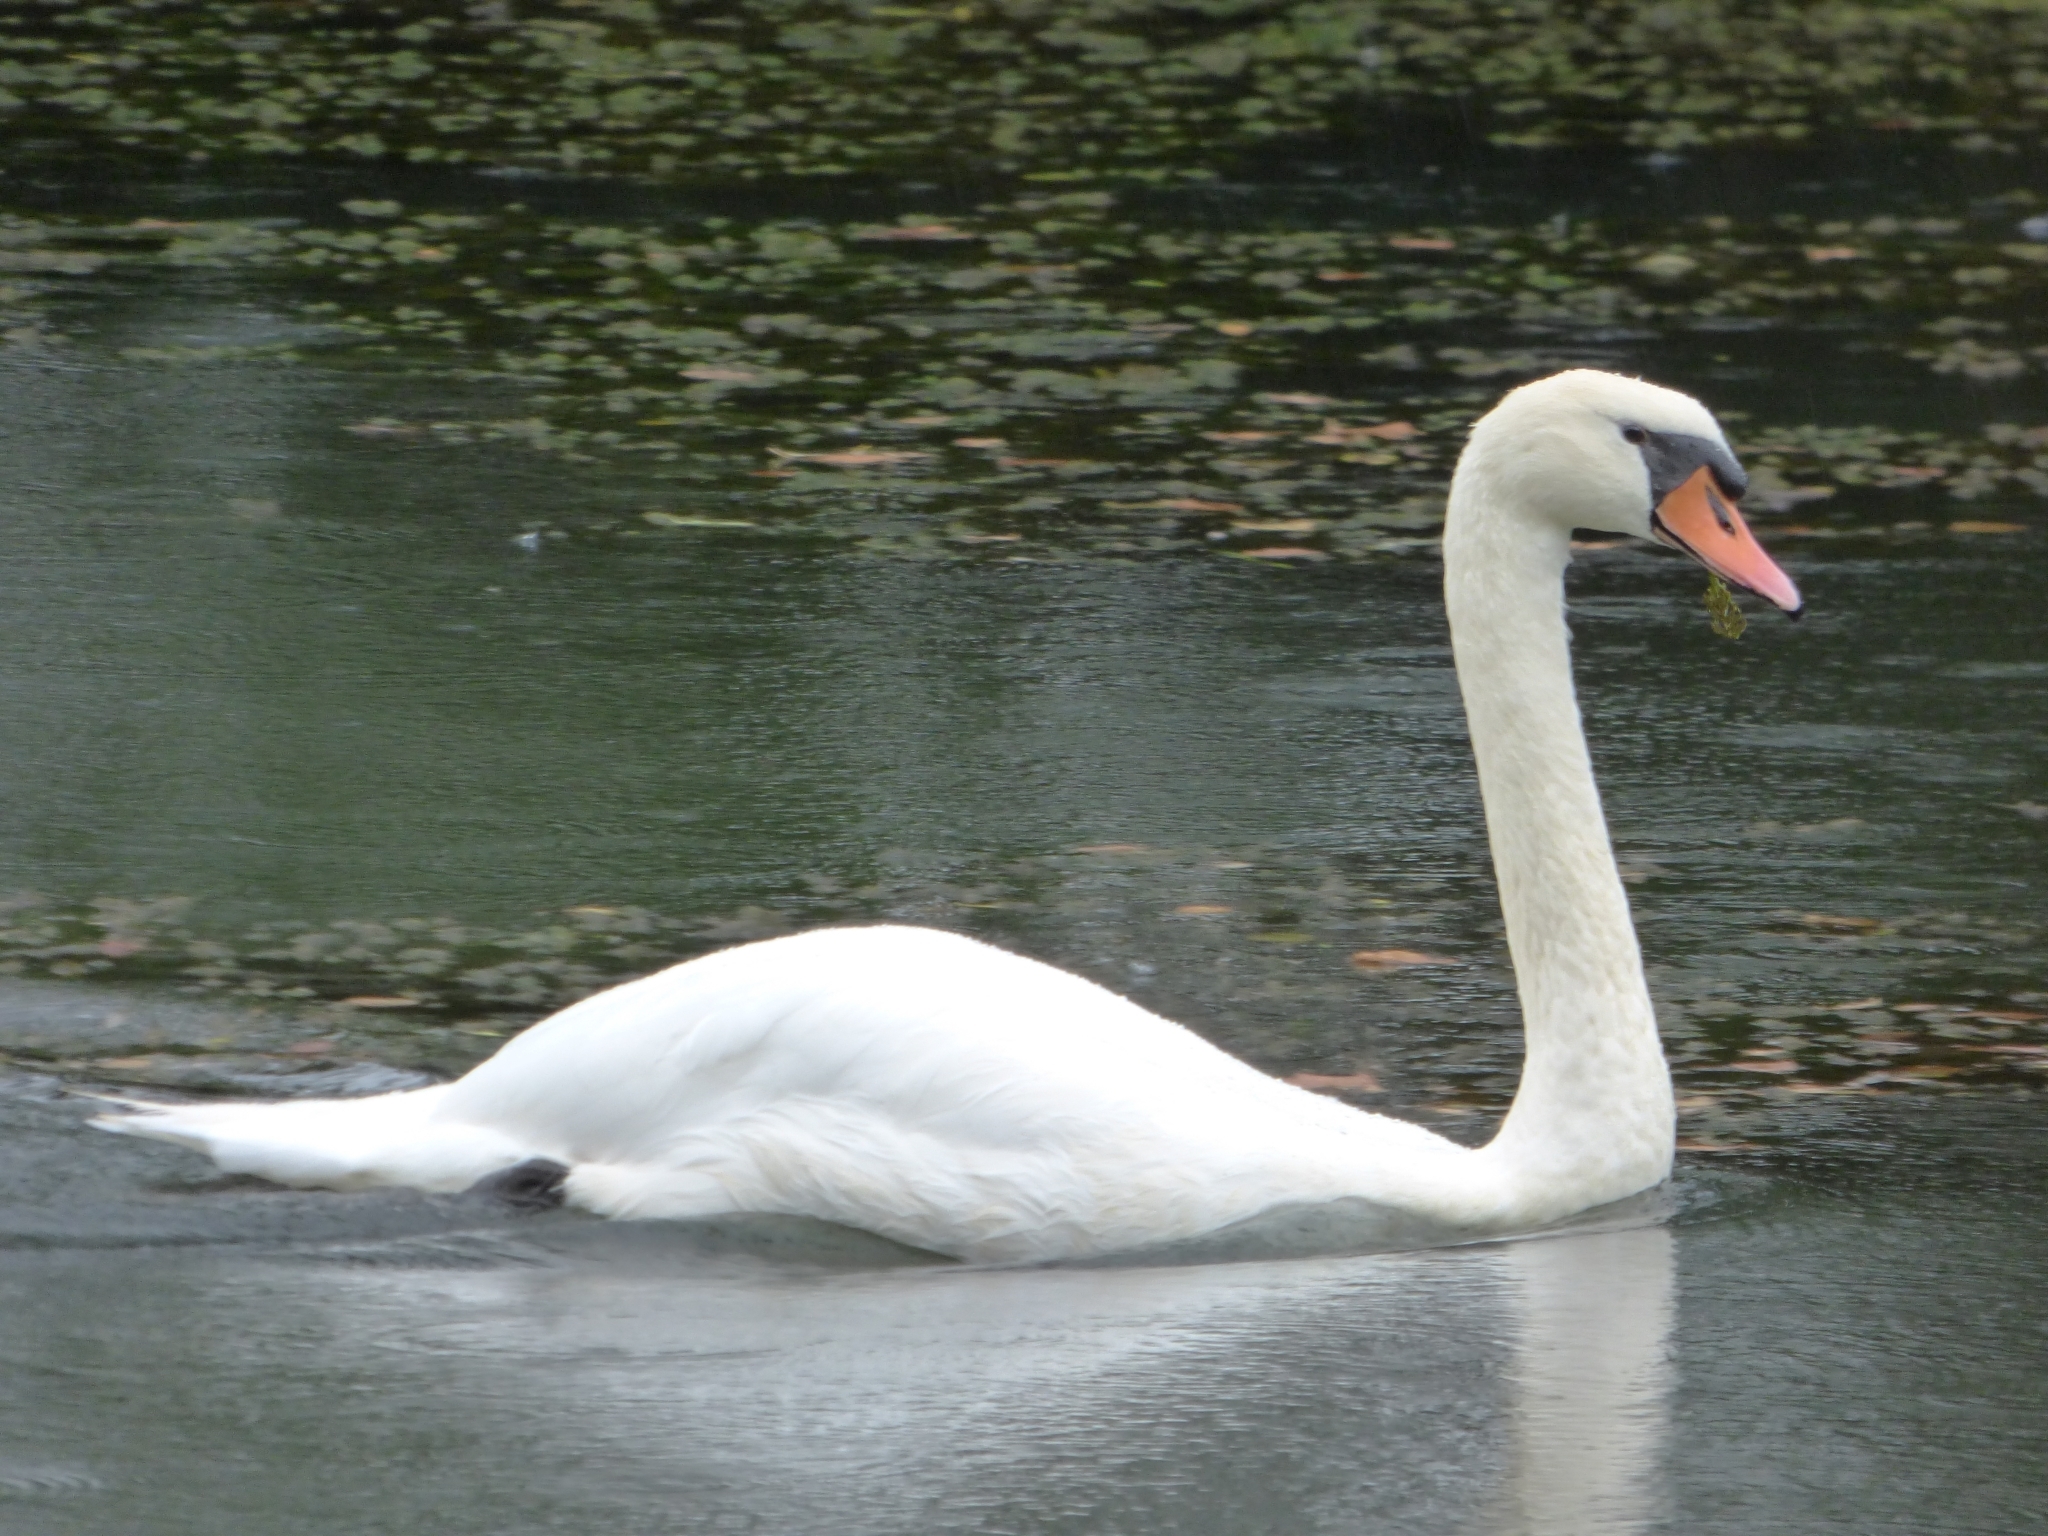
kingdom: Animalia
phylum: Chordata
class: Aves
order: Anseriformes
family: Anatidae
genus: Cygnus
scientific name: Cygnus olor
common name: Mute swan
